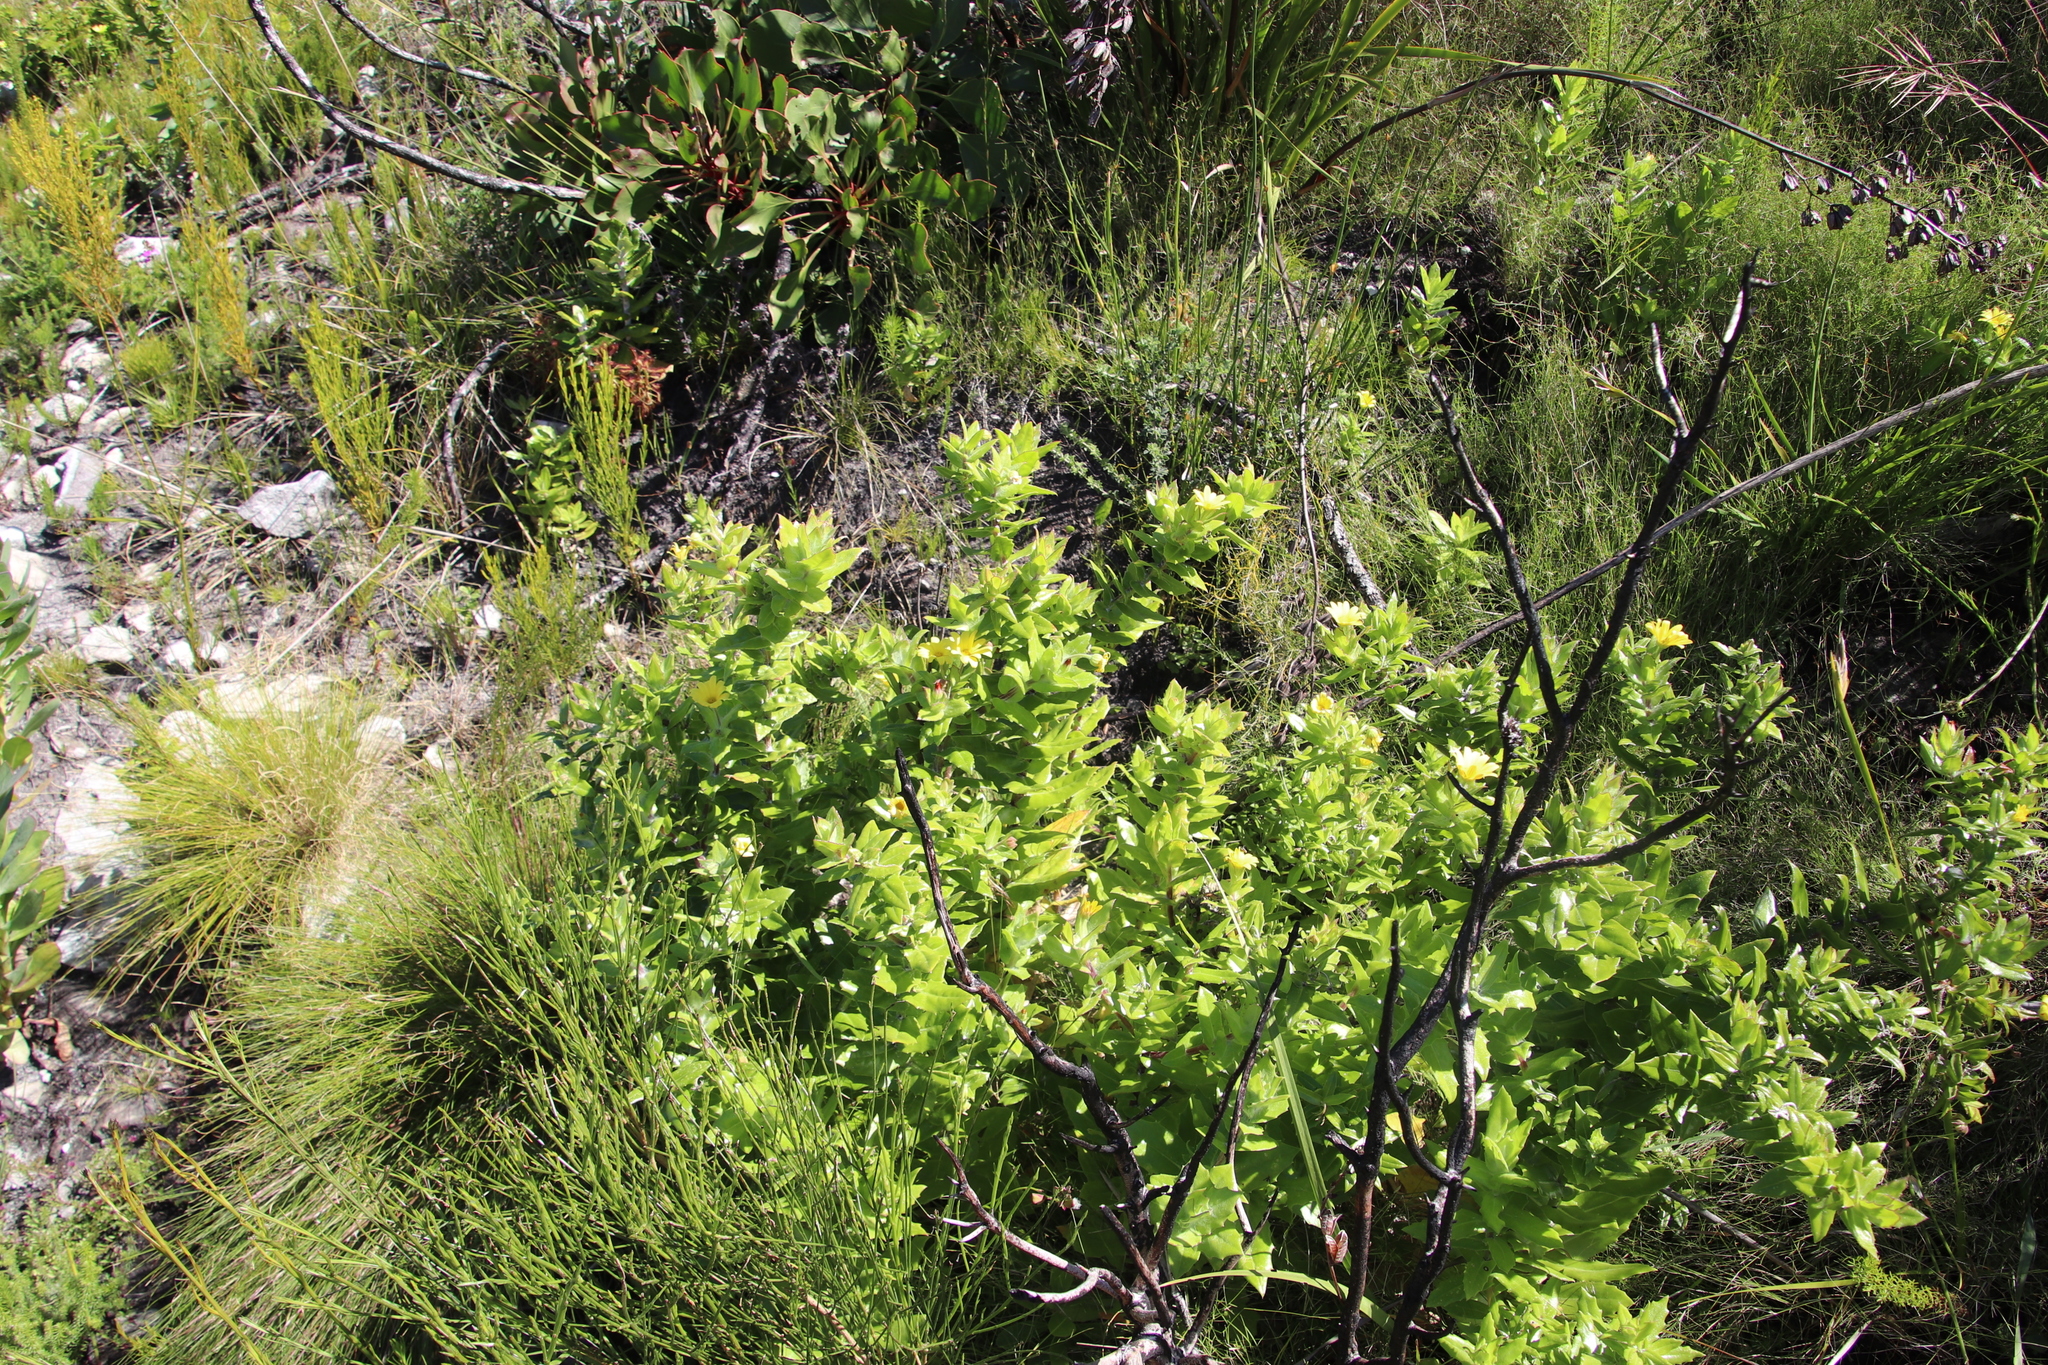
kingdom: Plantae
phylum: Tracheophyta
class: Magnoliopsida
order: Asterales
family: Asteraceae
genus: Osteospermum
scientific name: Osteospermum ilicifolium
